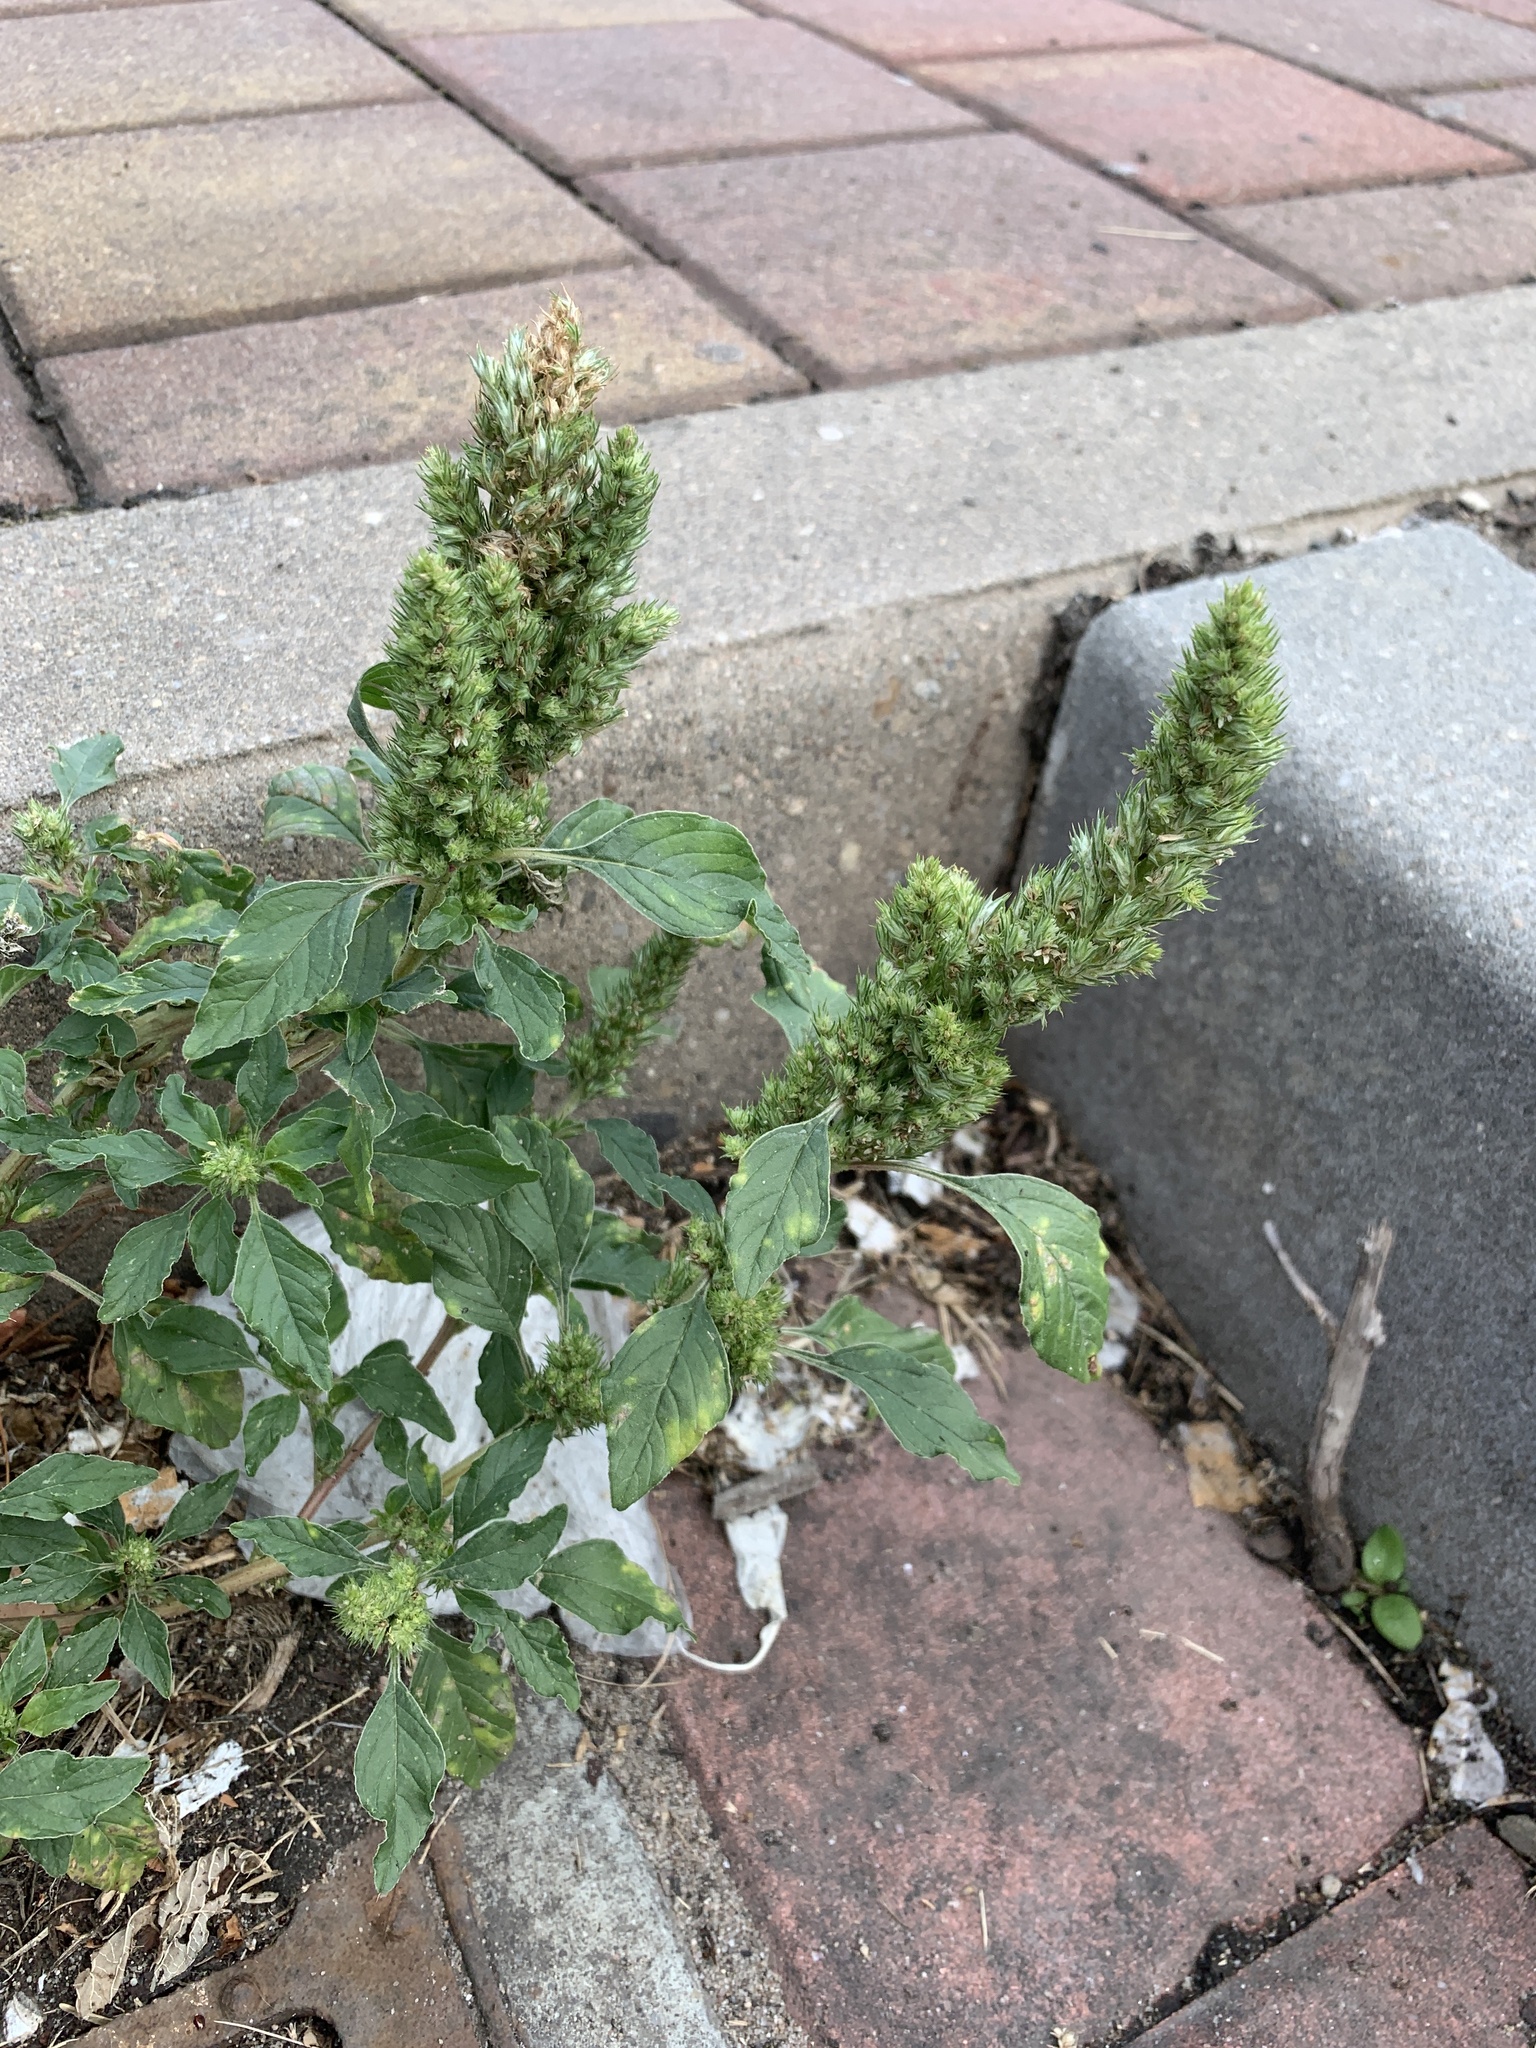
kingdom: Plantae
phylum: Tracheophyta
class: Magnoliopsida
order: Caryophyllales
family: Amaranthaceae
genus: Amaranthus
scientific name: Amaranthus retroflexus
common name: Redroot amaranth
